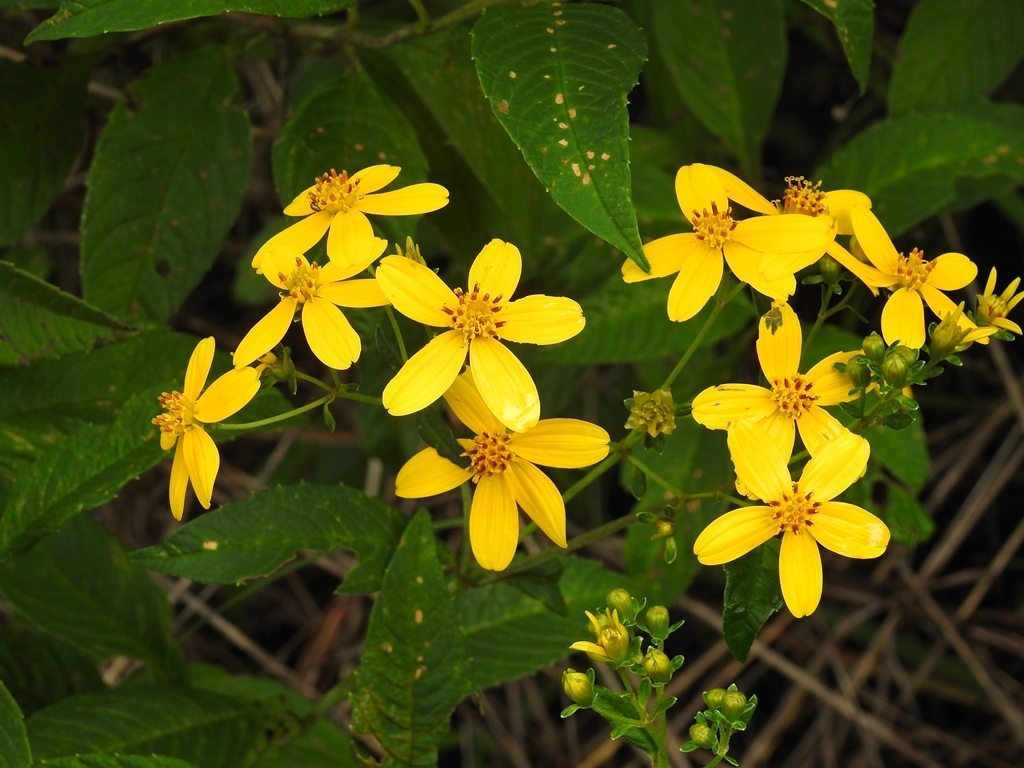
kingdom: Plantae
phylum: Tracheophyta
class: Magnoliopsida
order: Asterales
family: Asteraceae
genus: Electranthera
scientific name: Electranthera mutica
